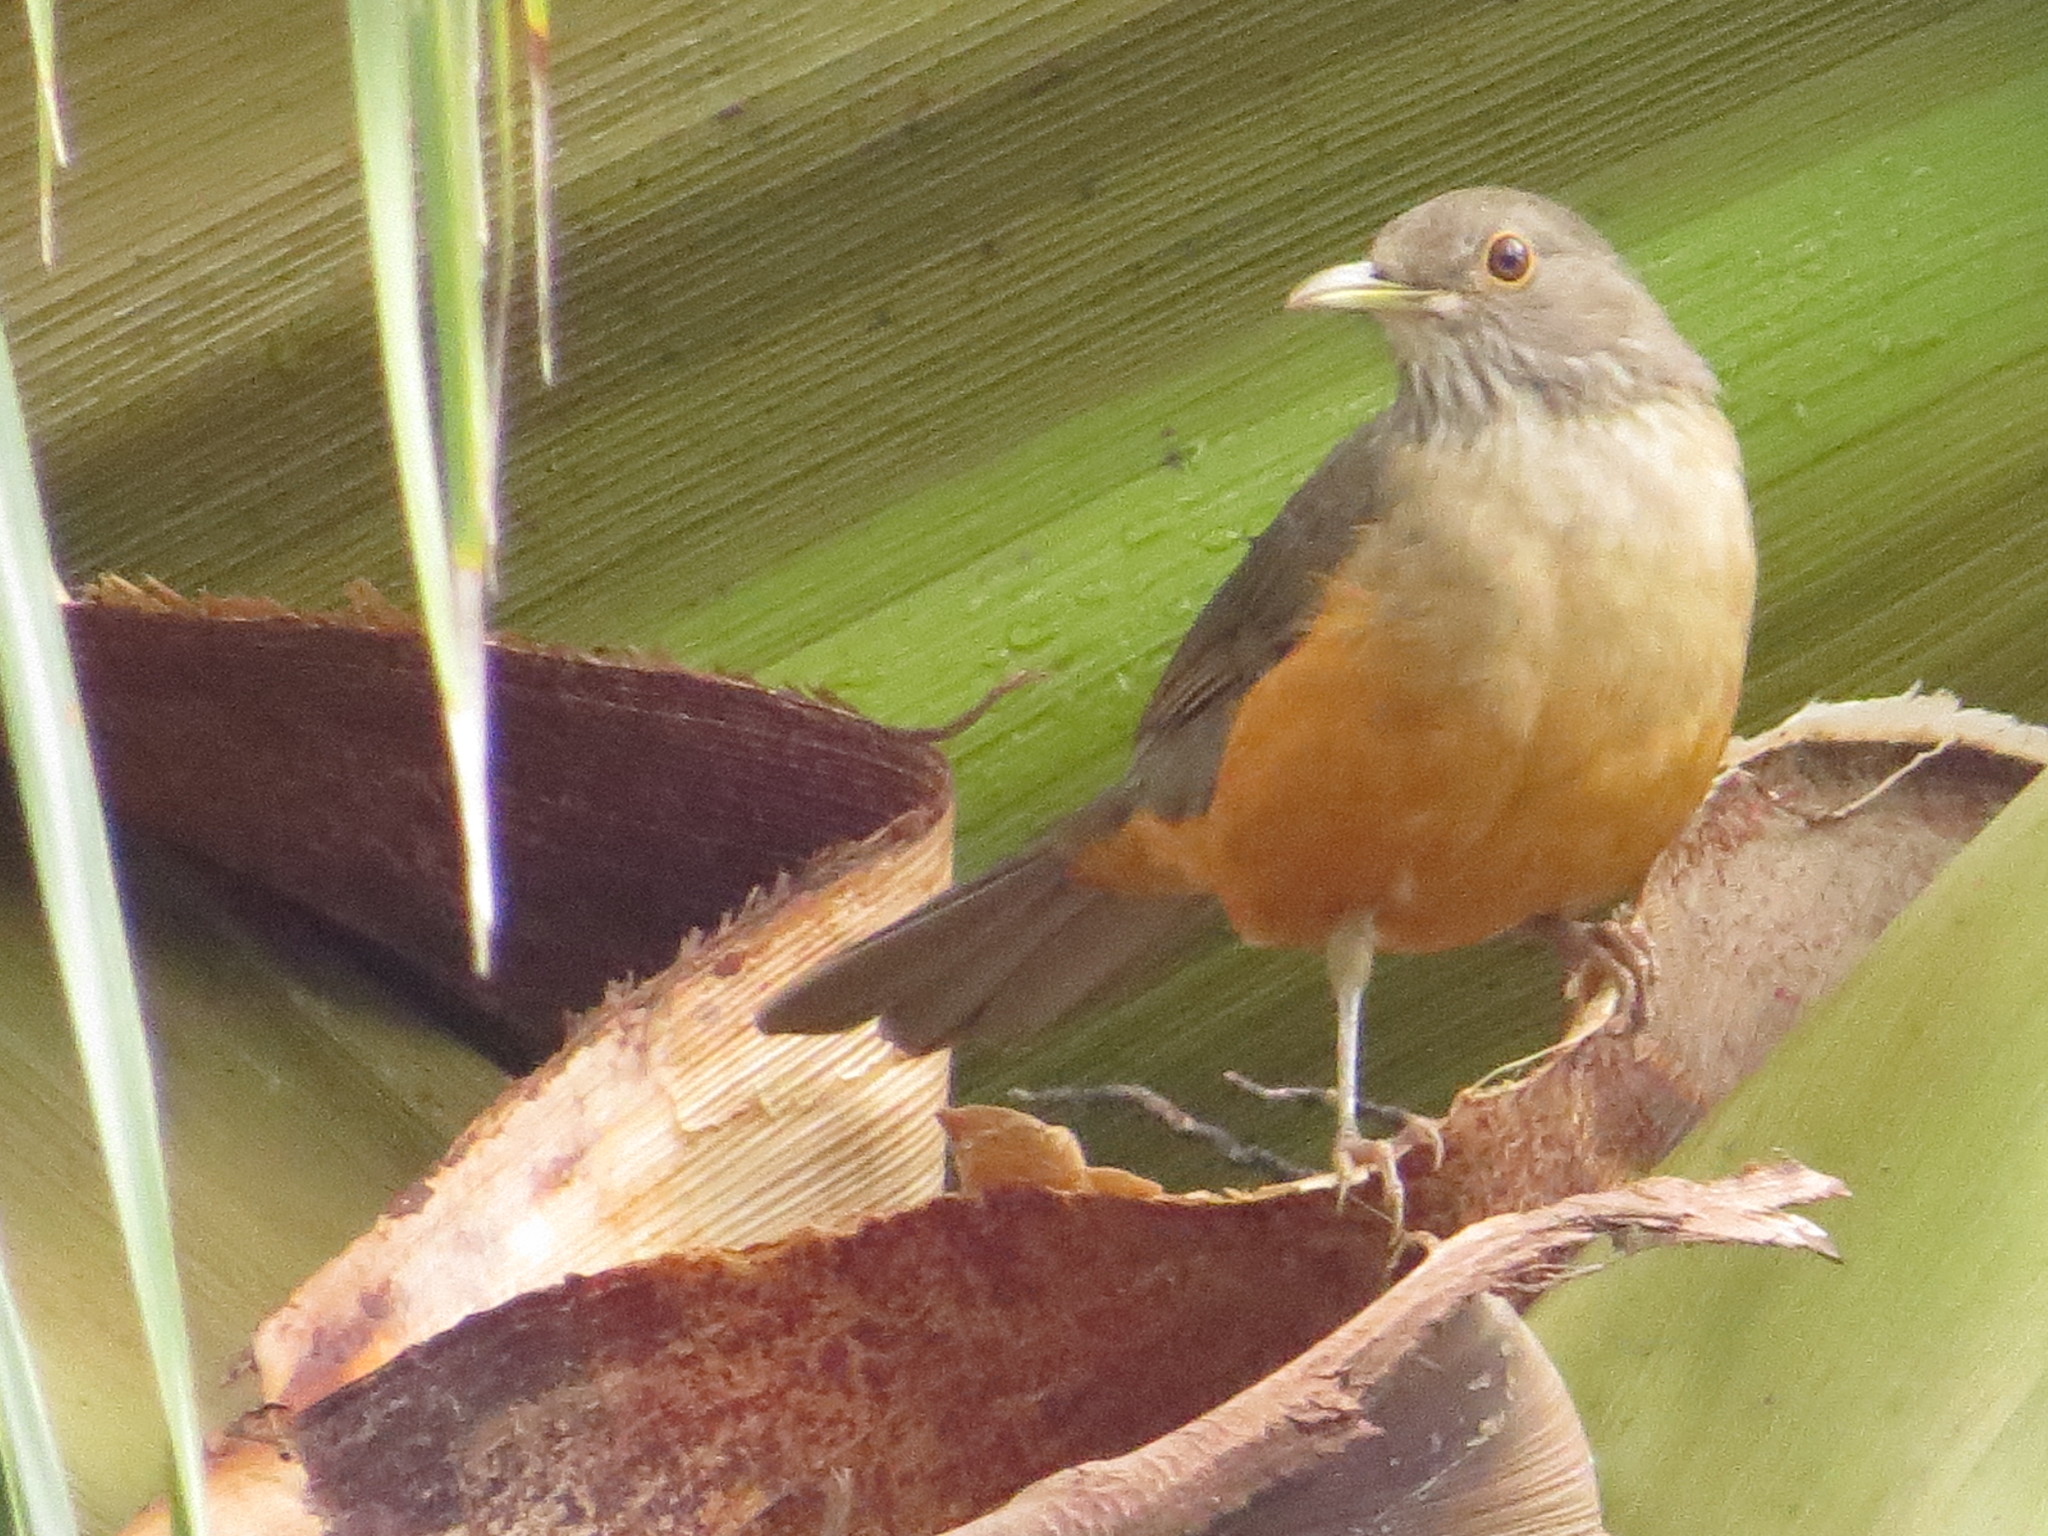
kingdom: Animalia
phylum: Chordata
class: Aves
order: Passeriformes
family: Turdidae
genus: Turdus
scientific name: Turdus rufiventris
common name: Rufous-bellied thrush
